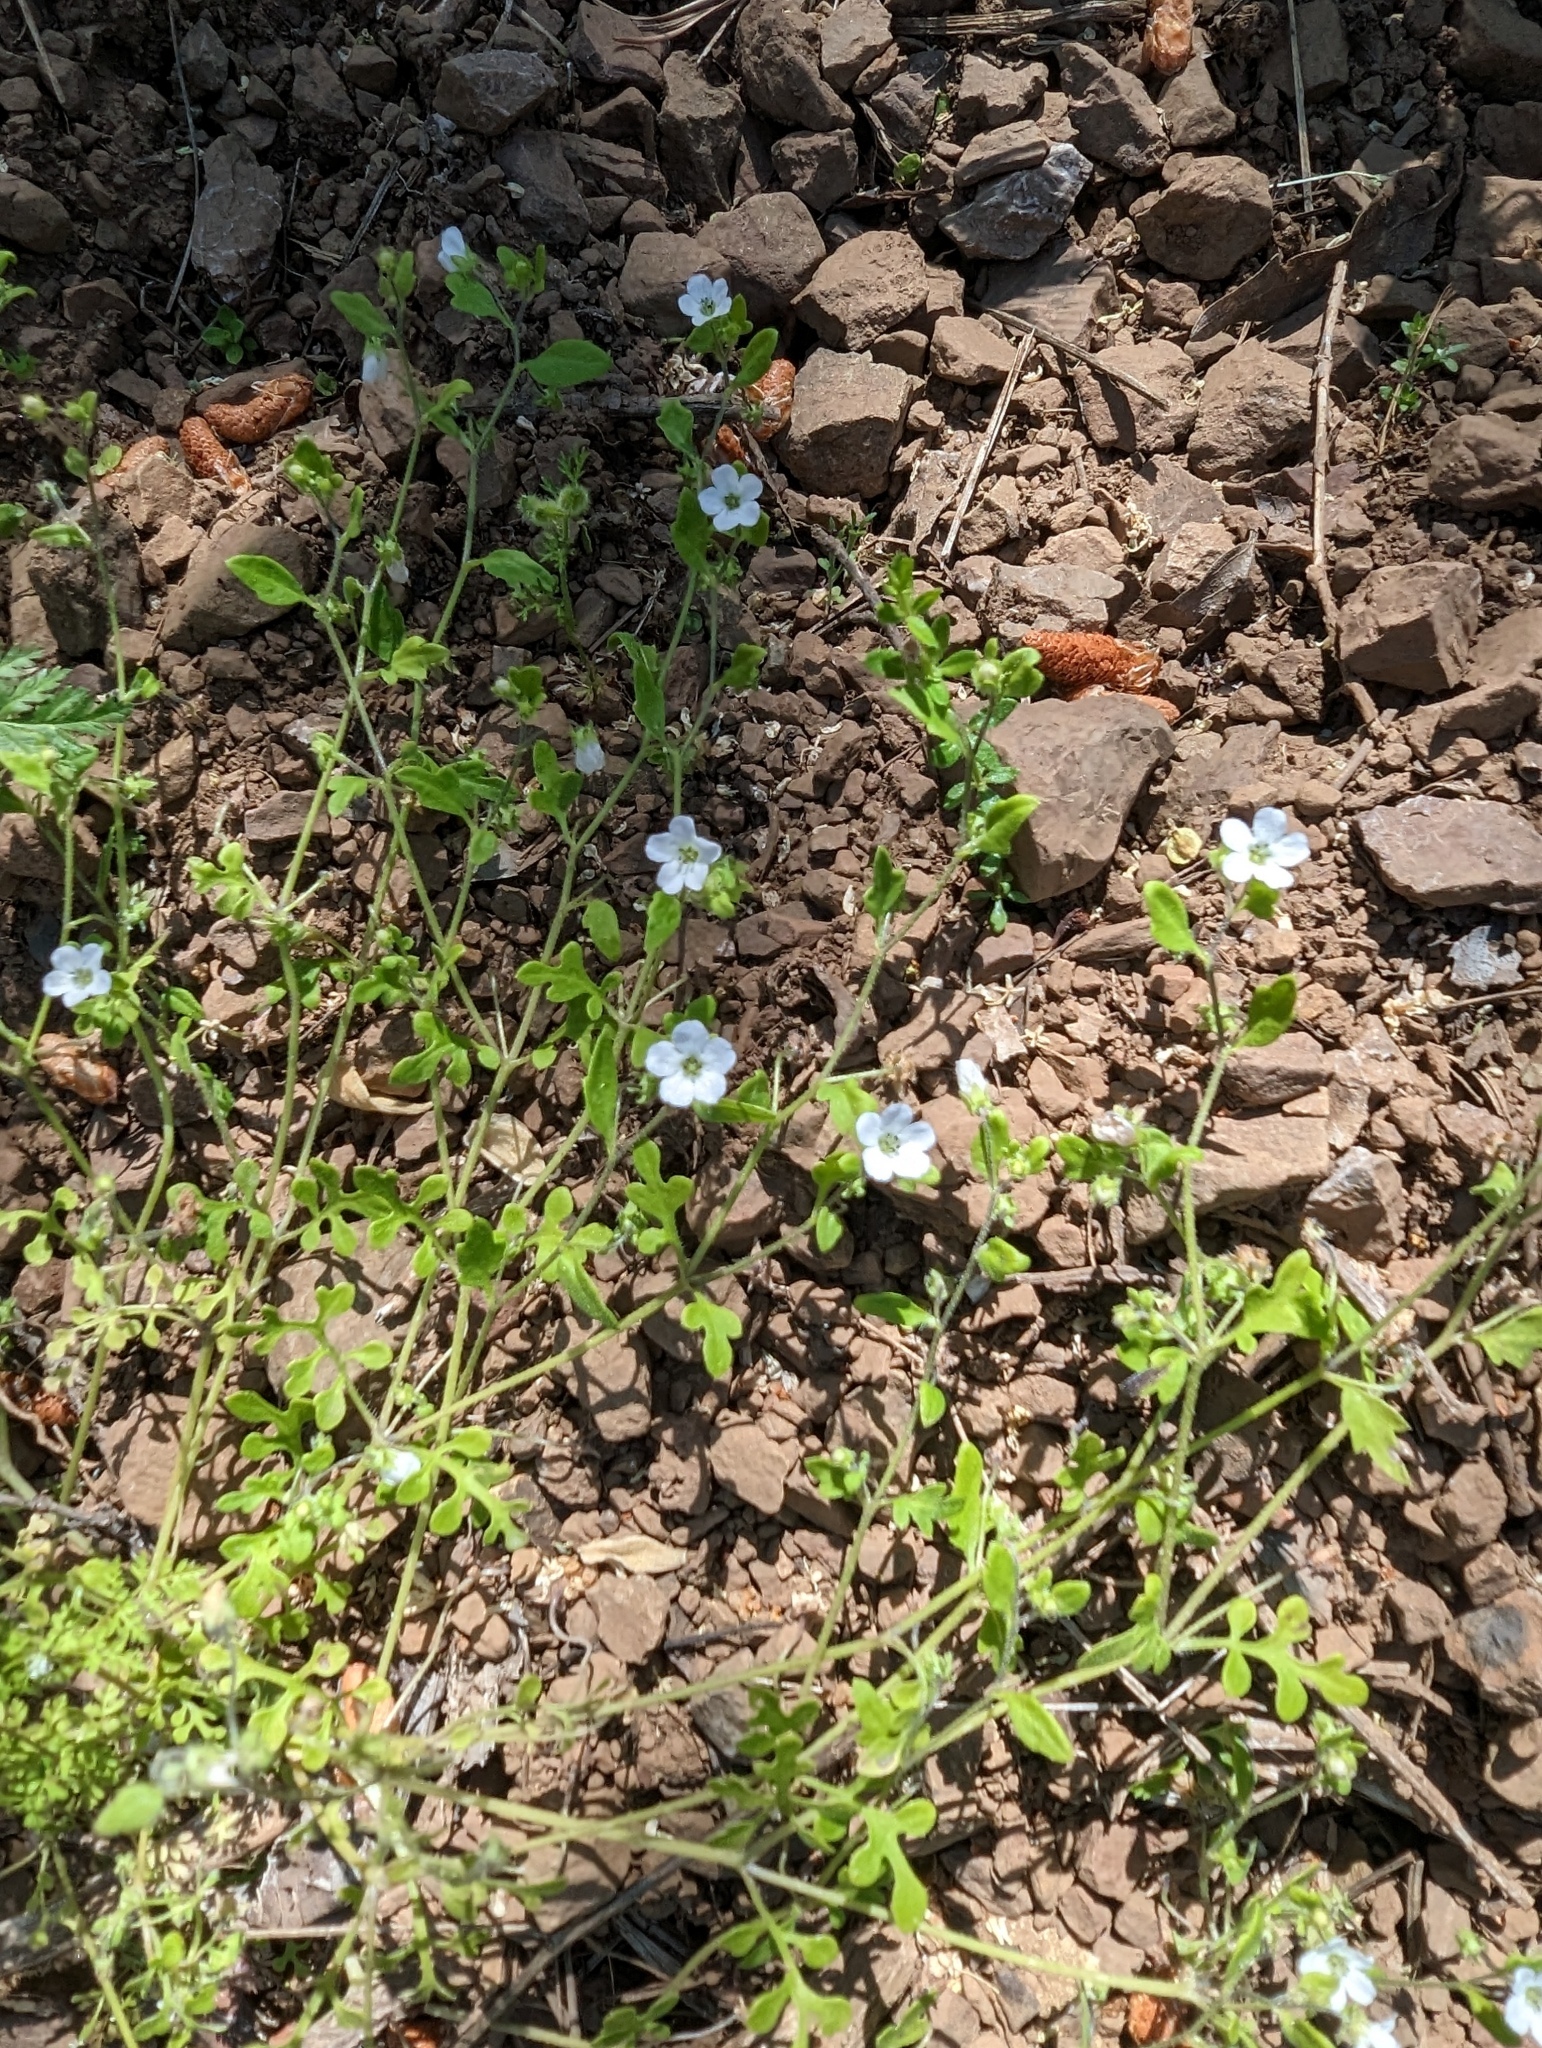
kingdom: Plantae
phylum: Tracheophyta
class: Magnoliopsida
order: Boraginales
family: Hydrophyllaceae
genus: Nemophila
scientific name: Nemophila heterophylla
